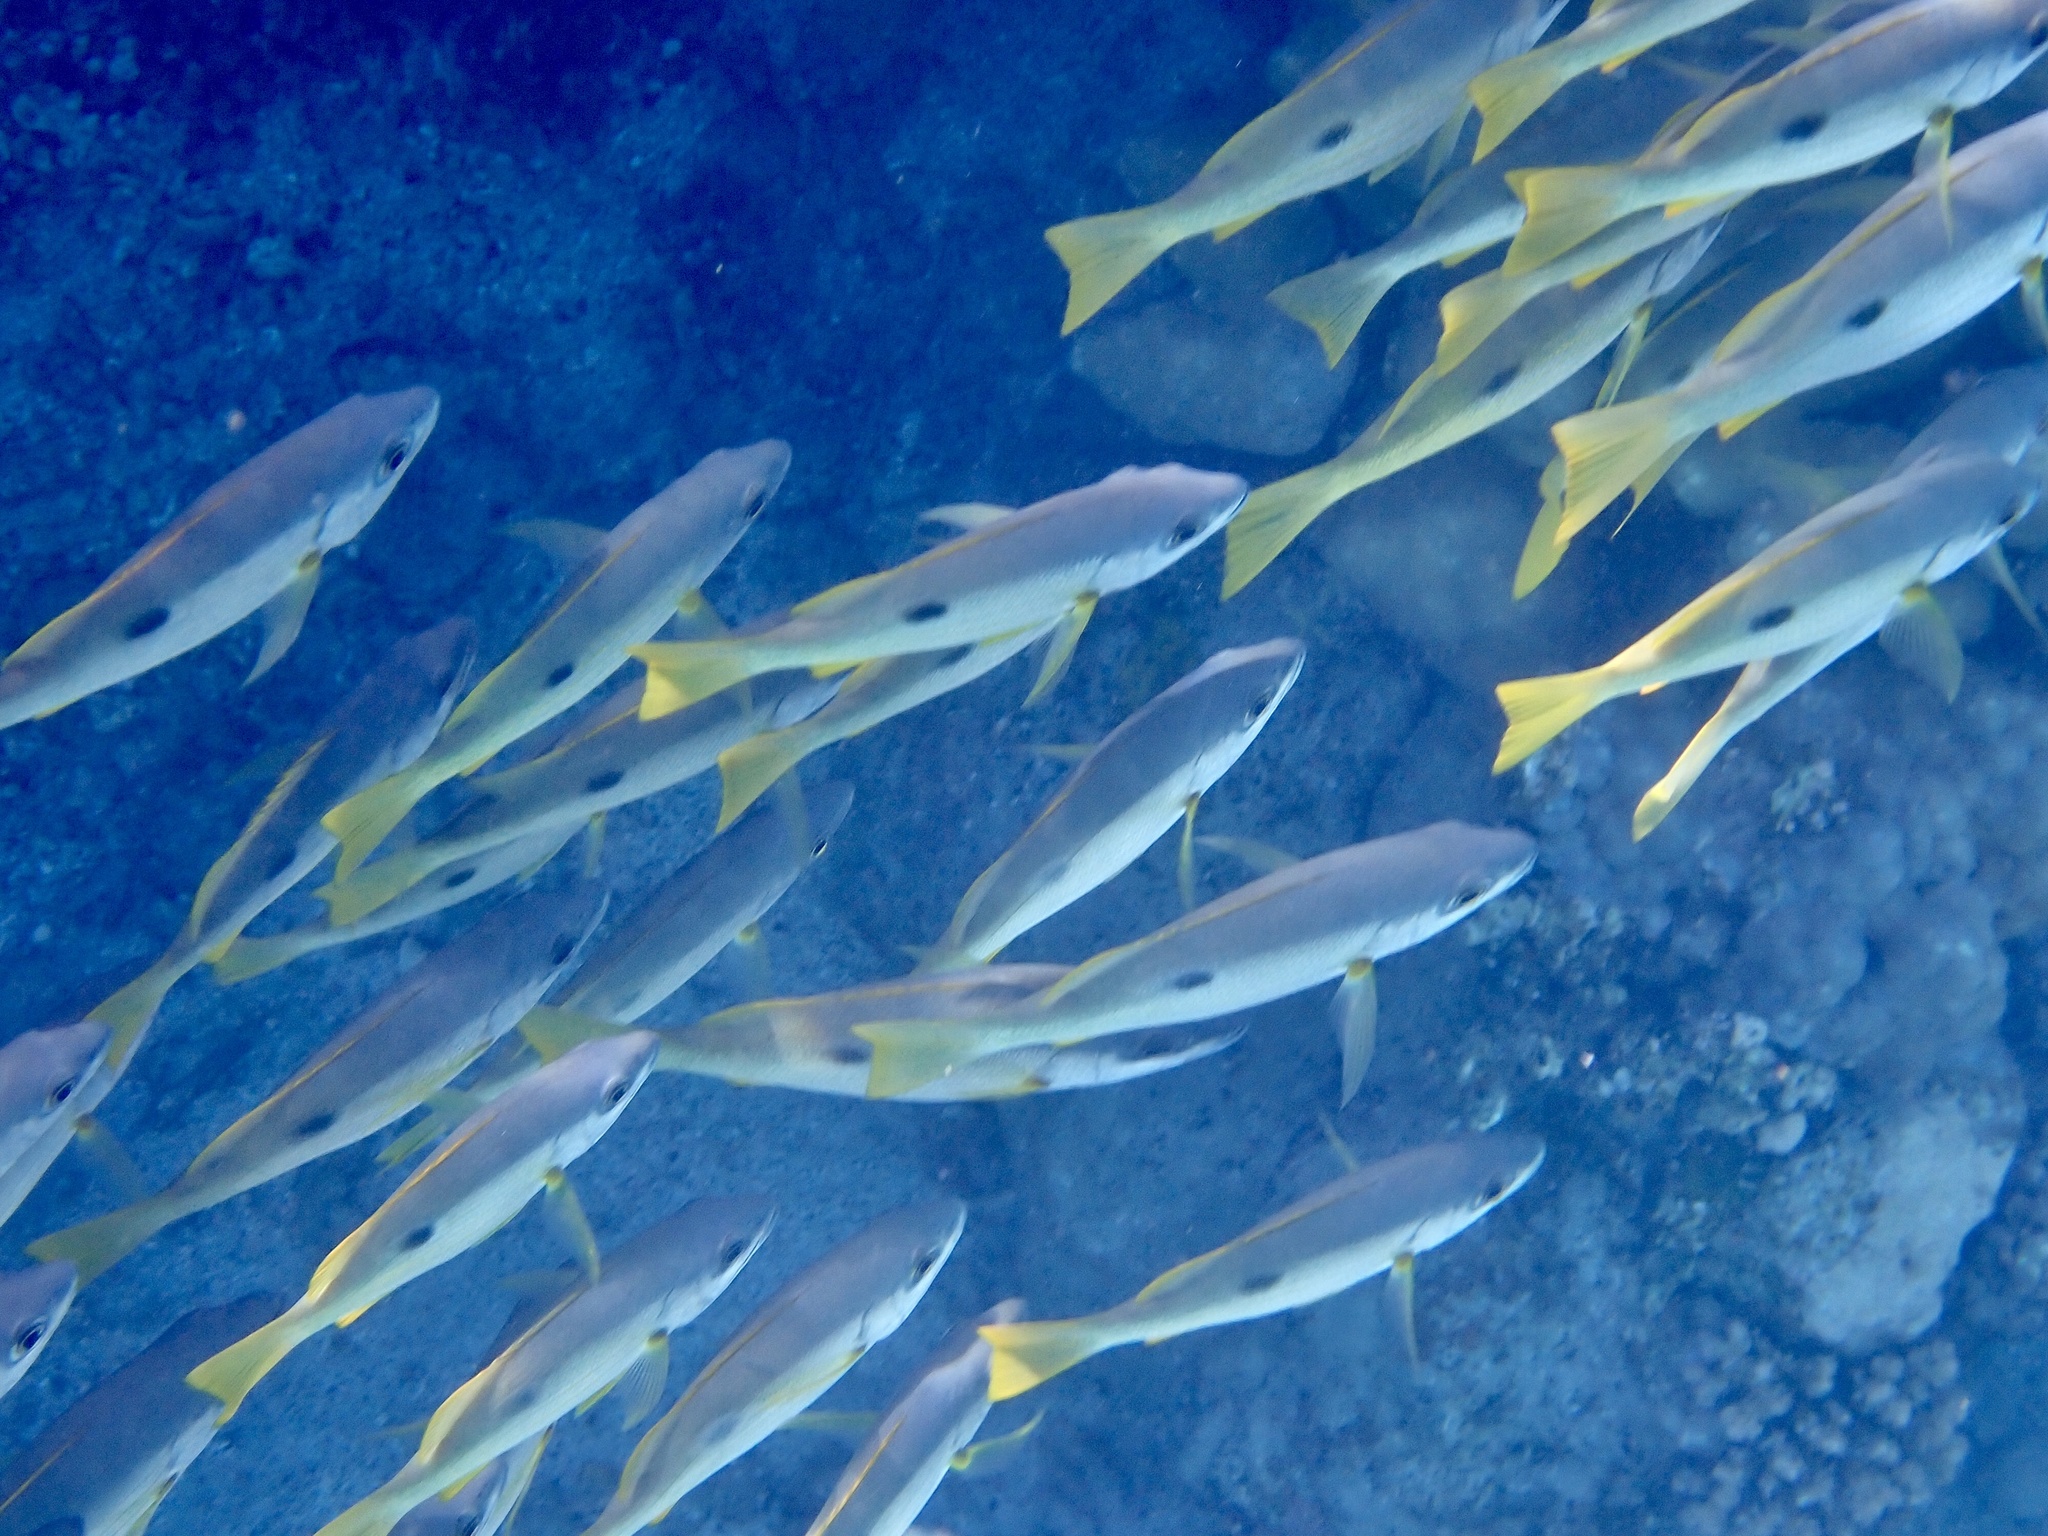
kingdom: Animalia
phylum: Chordata
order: Perciformes
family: Lutjanidae
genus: Lutjanus
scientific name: Lutjanus ehrenbergii
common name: Blackspot snapper
